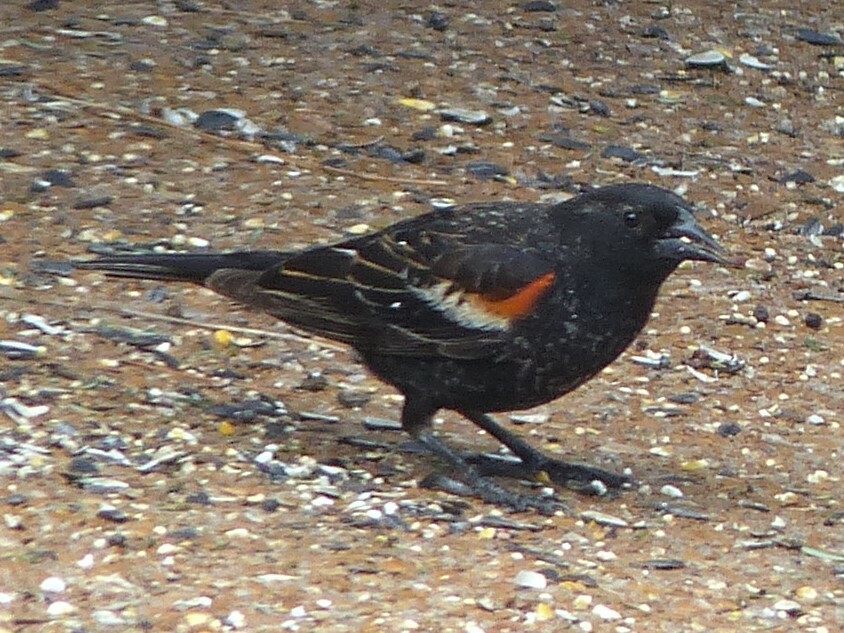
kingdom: Animalia
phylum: Chordata
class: Aves
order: Passeriformes
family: Icteridae
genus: Agelaius
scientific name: Agelaius phoeniceus
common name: Red-winged blackbird
